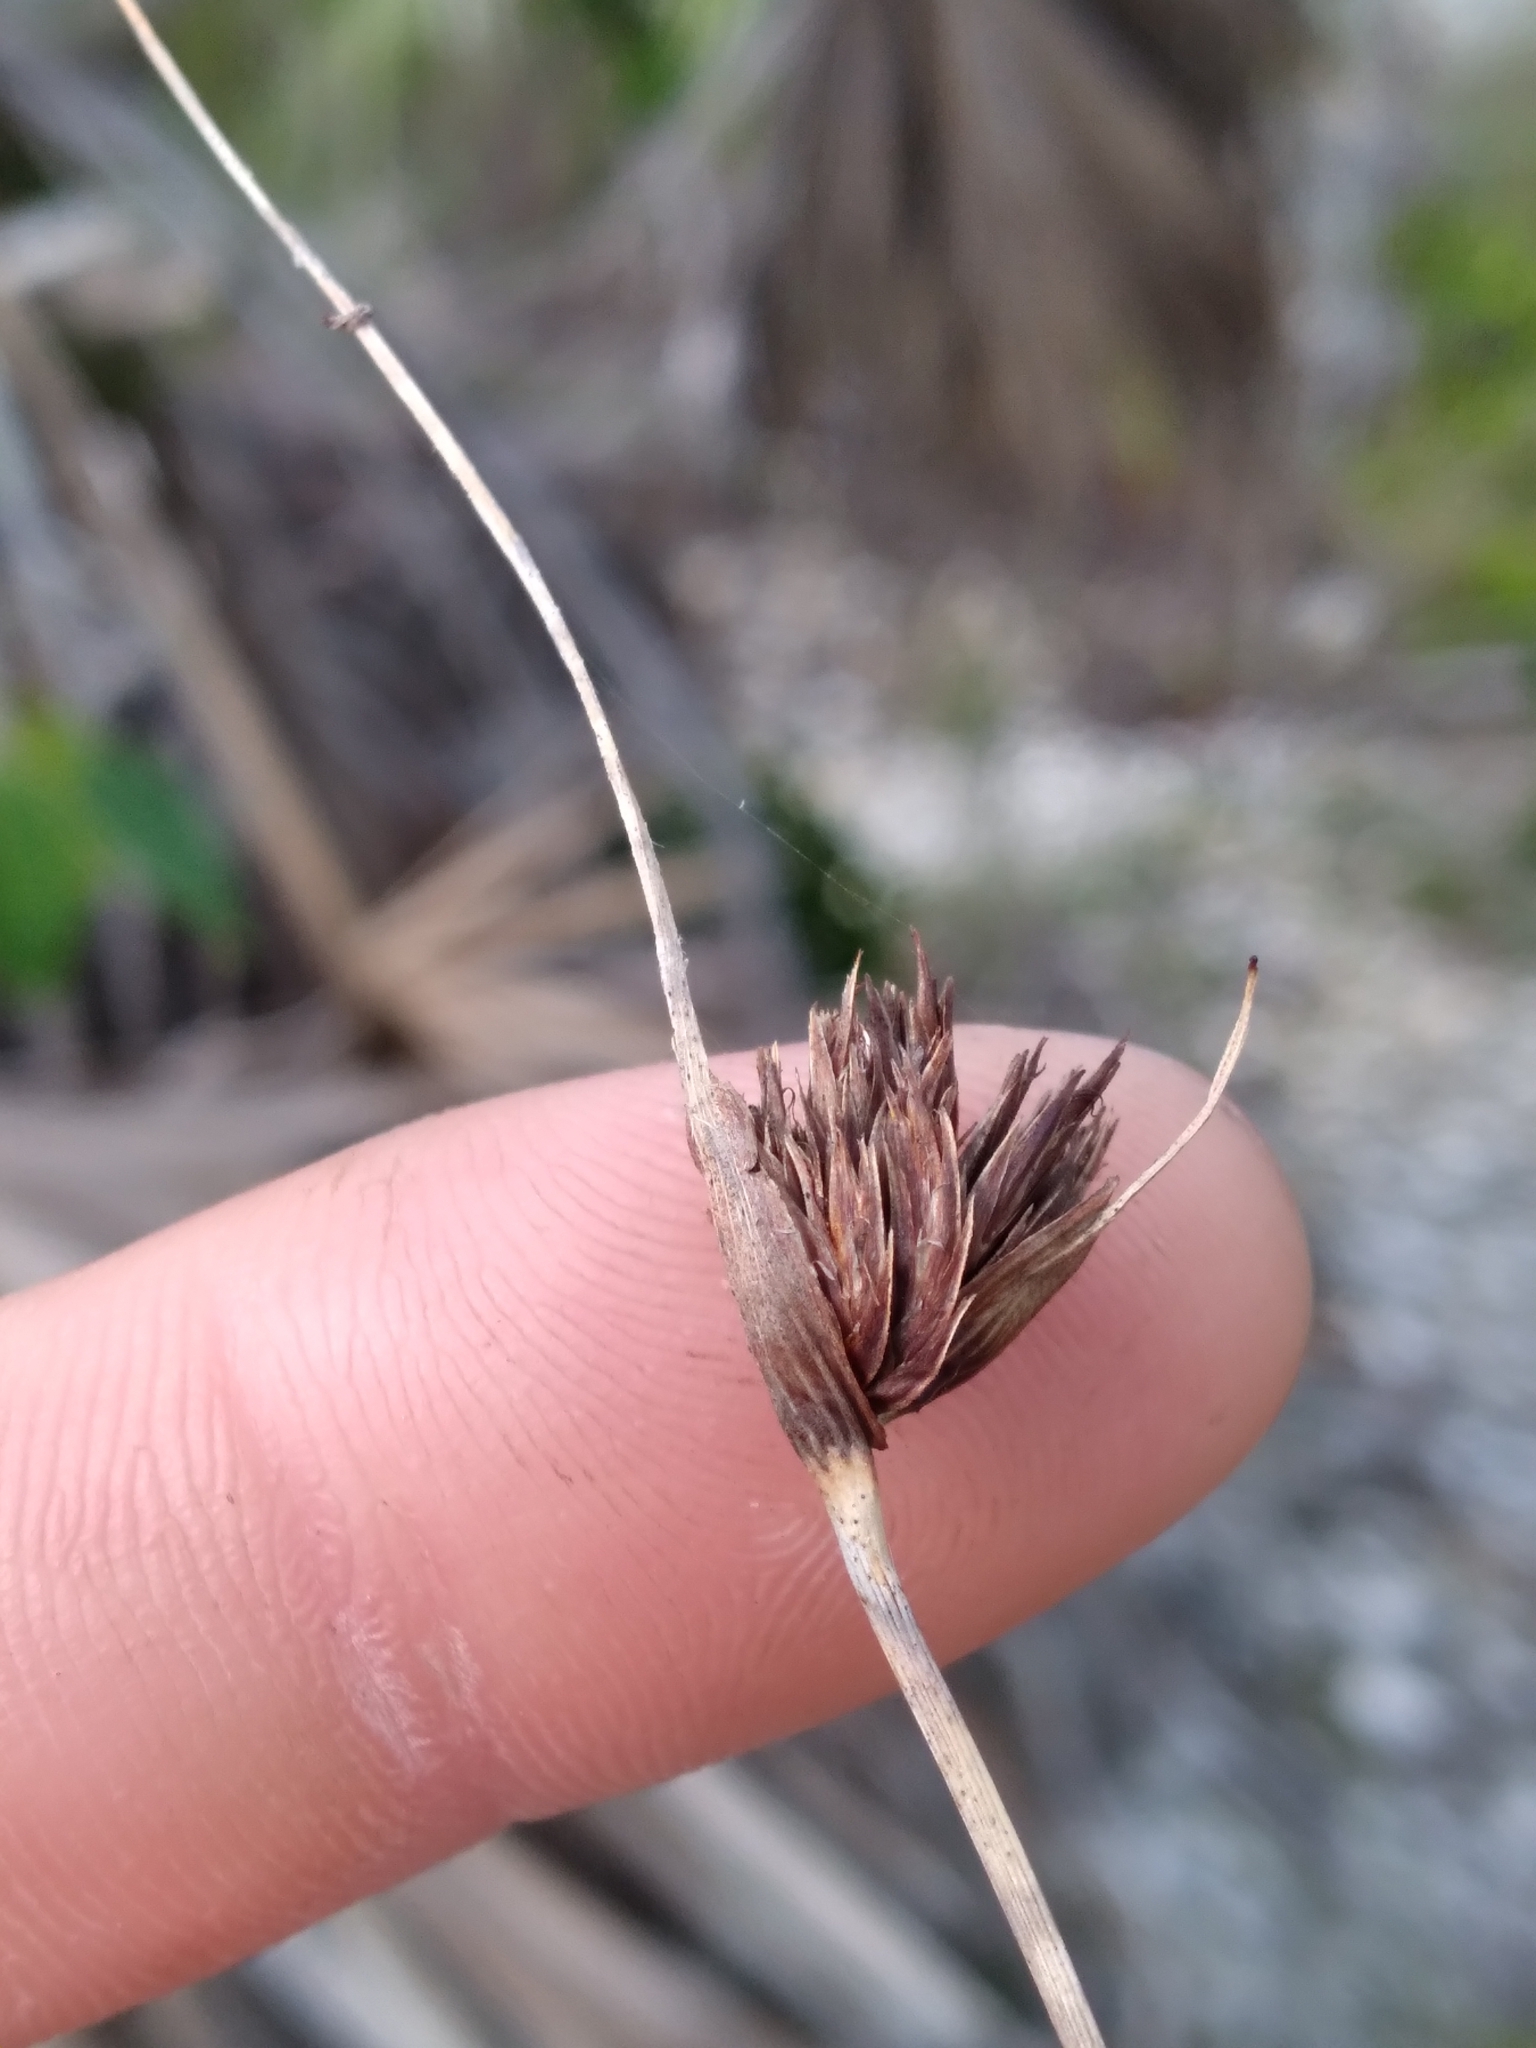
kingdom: Plantae
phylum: Tracheophyta
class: Liliopsida
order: Poales
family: Cyperaceae
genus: Schoenus
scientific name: Schoenus nigricans
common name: Black bog-rush
